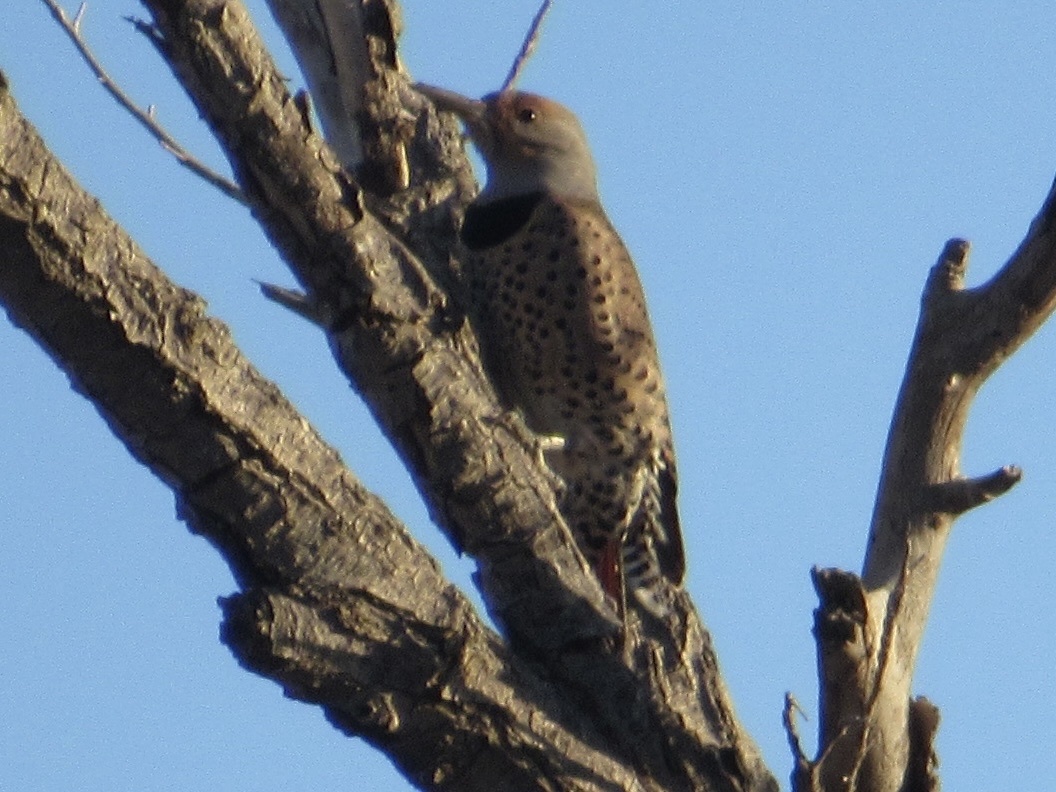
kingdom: Animalia
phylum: Chordata
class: Aves
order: Piciformes
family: Picidae
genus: Colaptes
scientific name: Colaptes auratus
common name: Northern flicker
